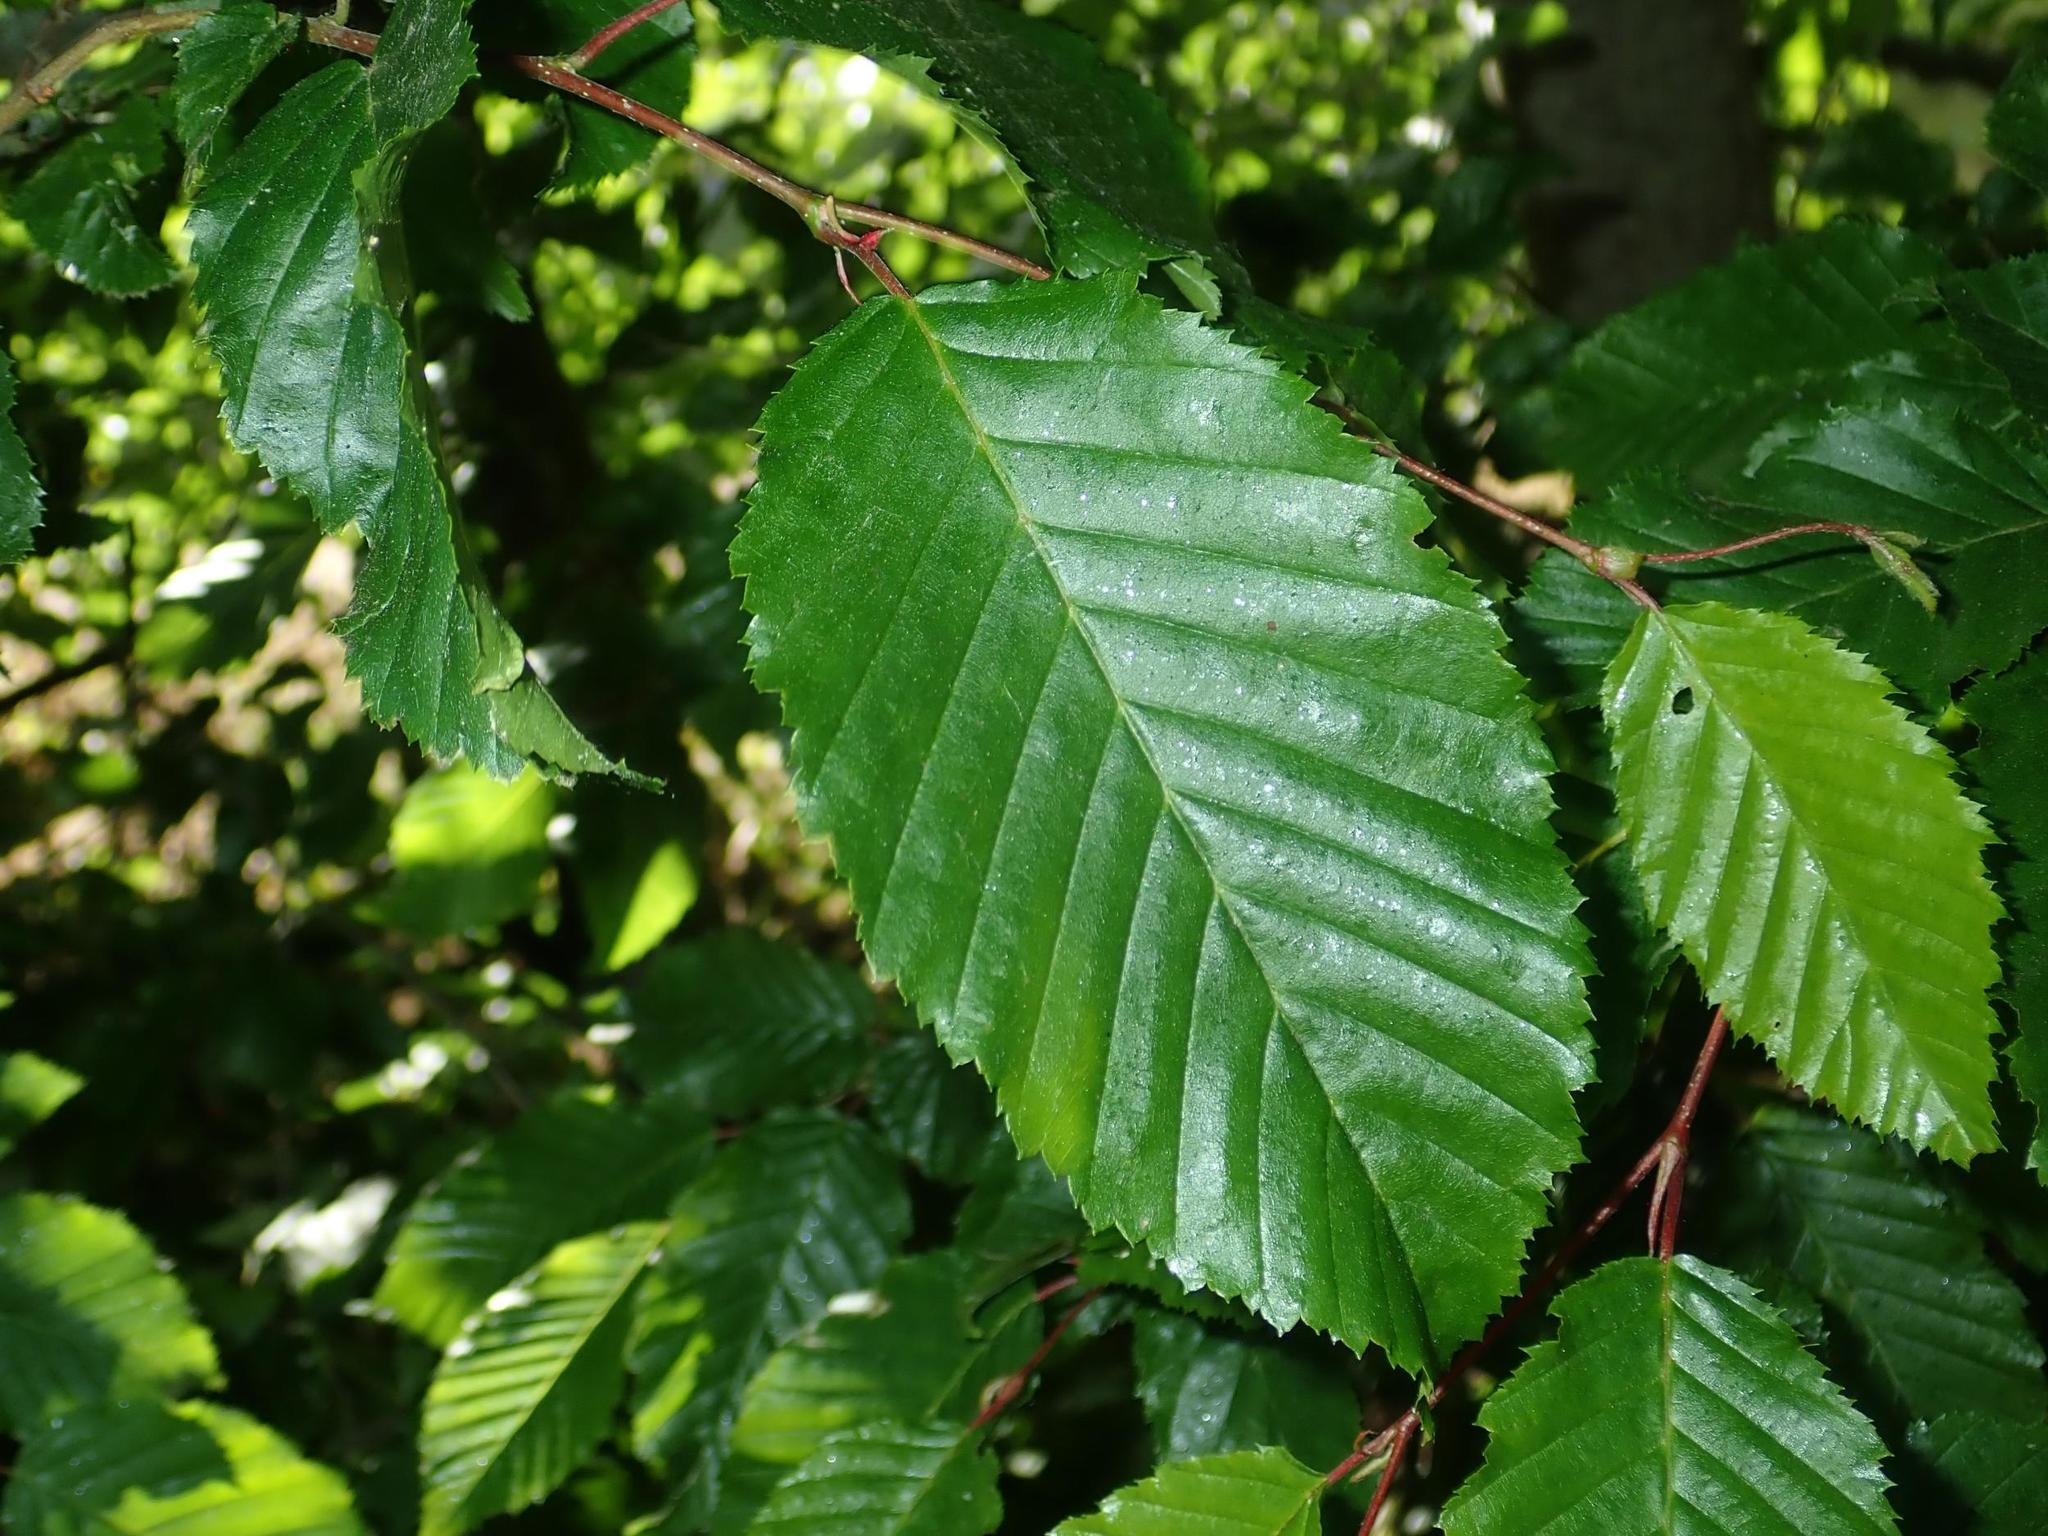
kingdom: Plantae
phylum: Tracheophyta
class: Magnoliopsida
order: Fagales
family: Betulaceae
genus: Carpinus
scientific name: Carpinus betulus
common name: Hornbeam
